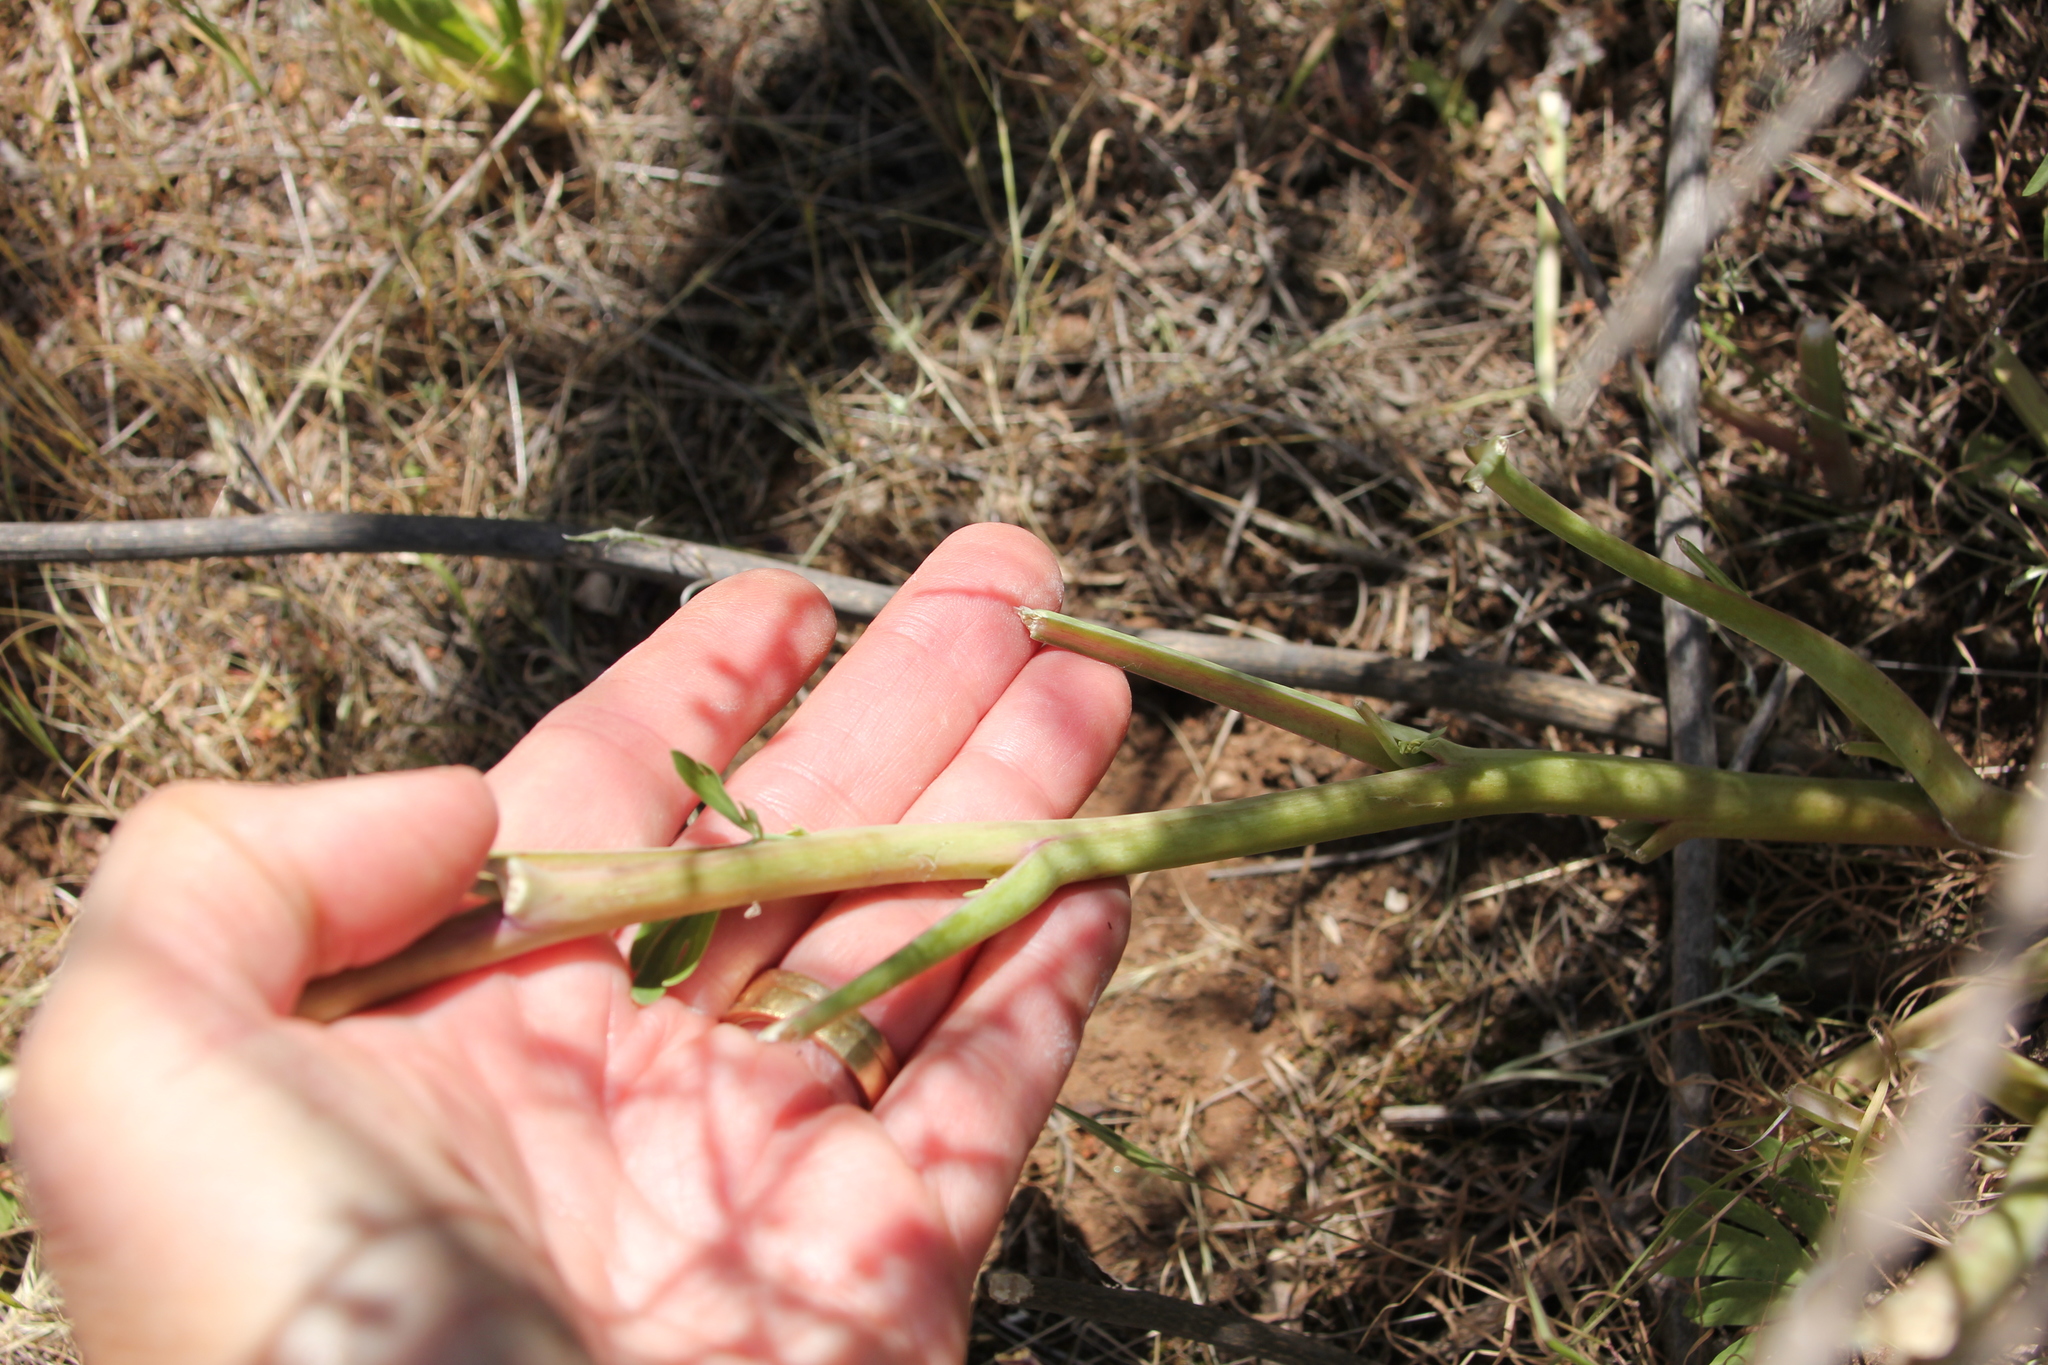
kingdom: Plantae
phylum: Tracheophyta
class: Magnoliopsida
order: Saxifragales
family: Paeoniaceae
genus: Paeonia
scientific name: Paeonia californica
